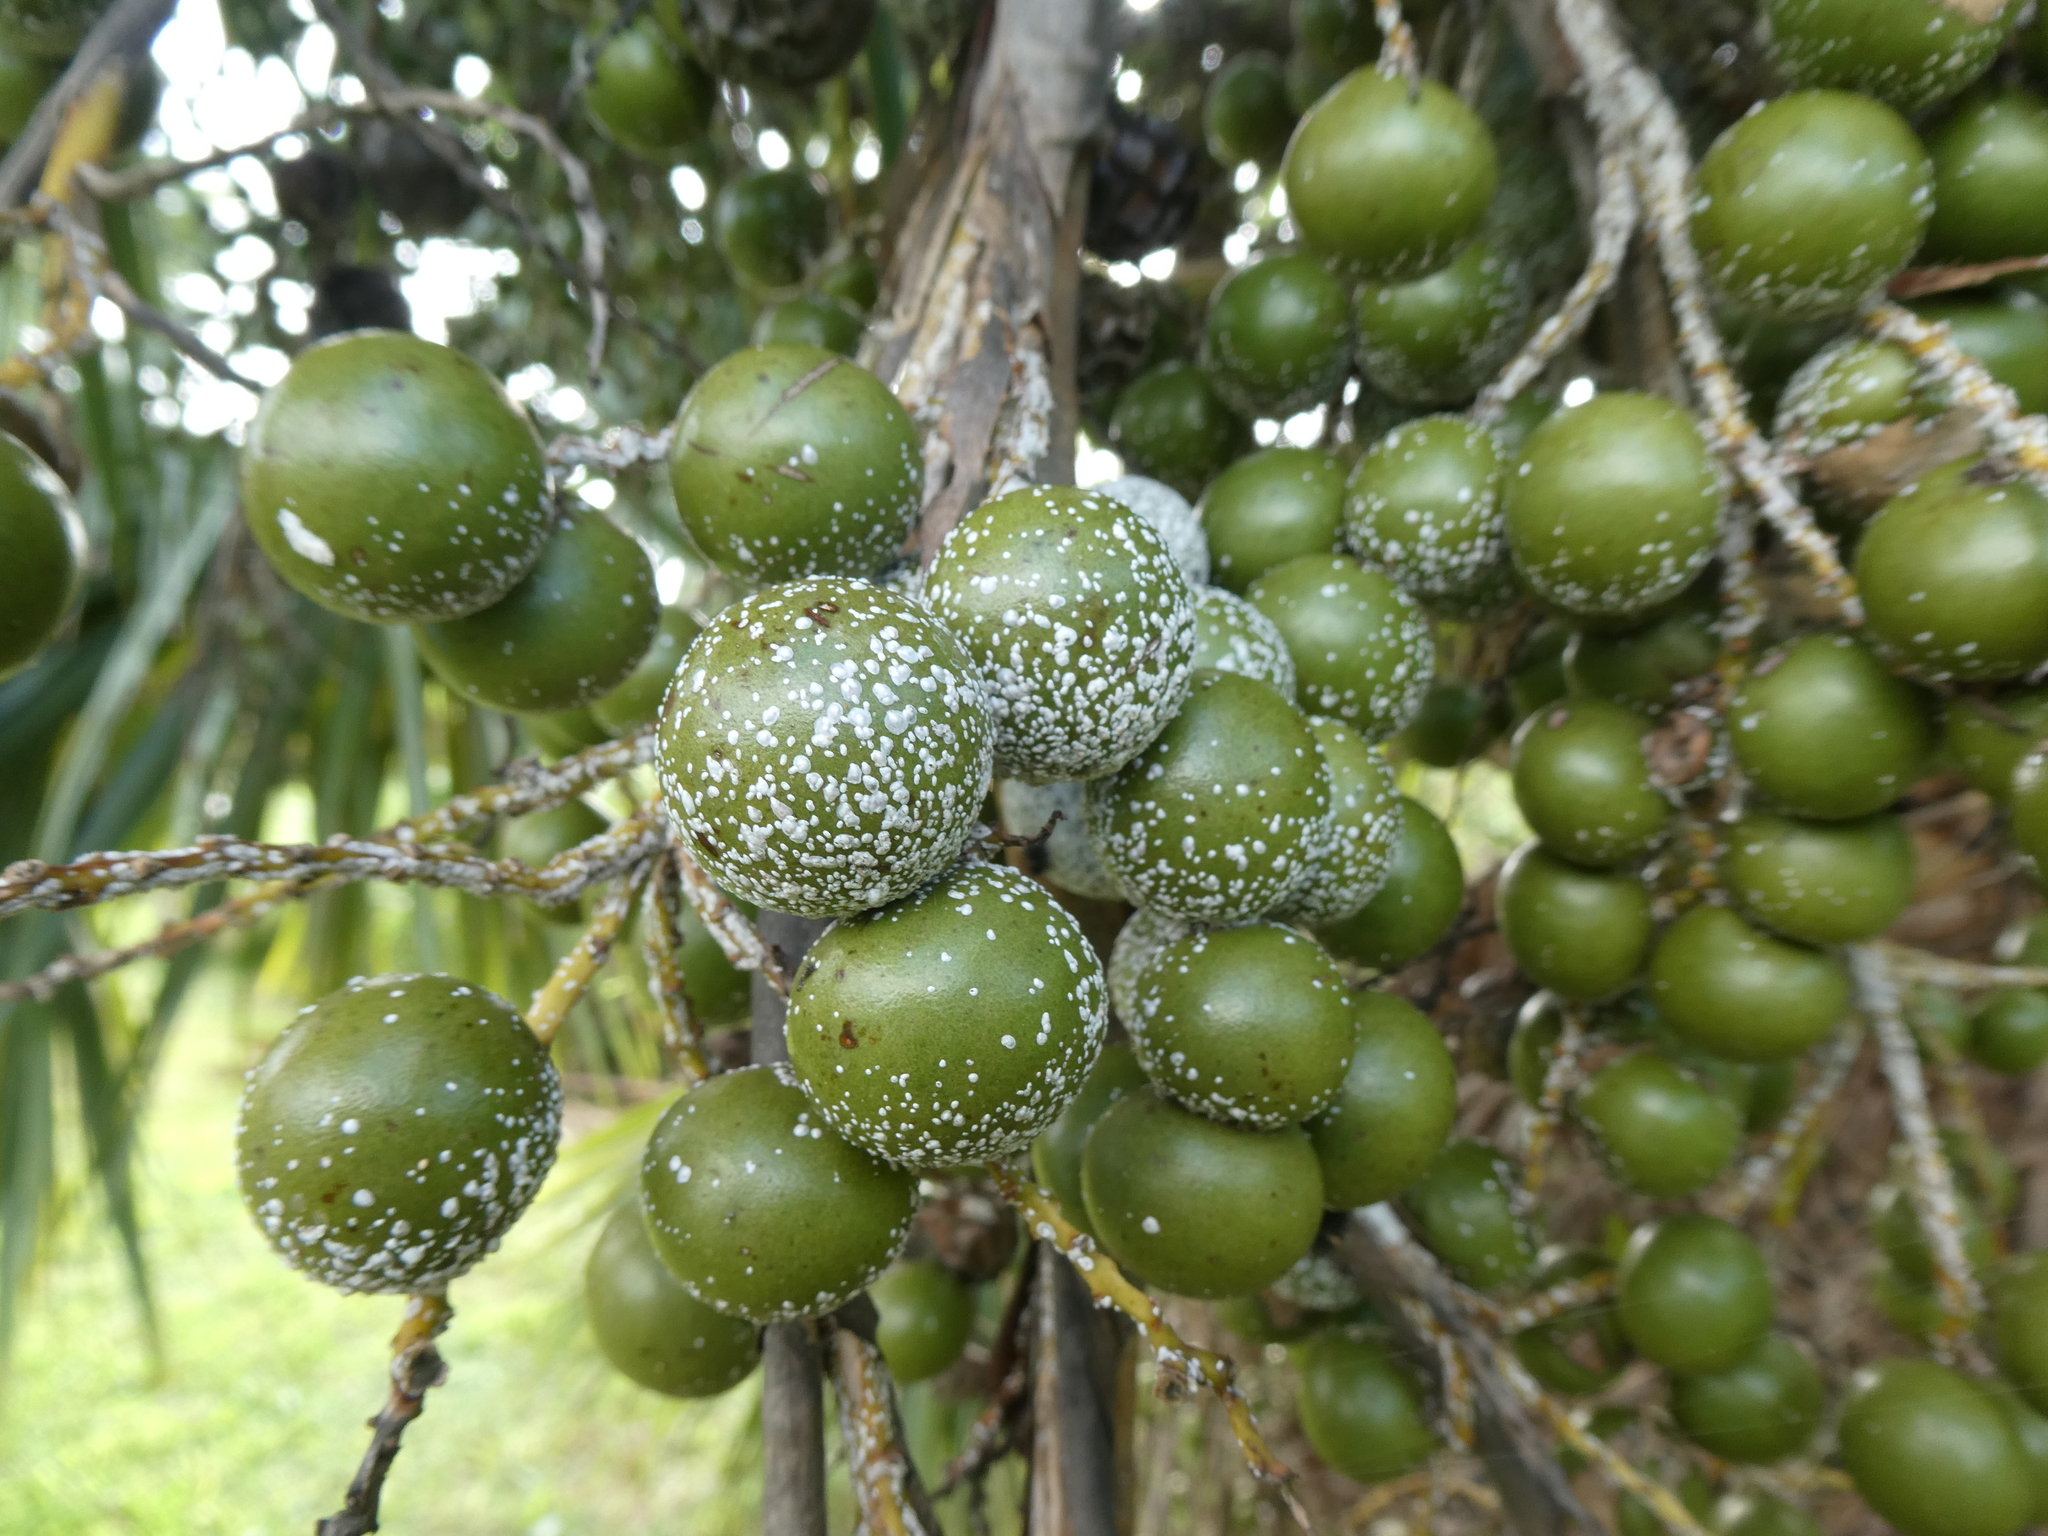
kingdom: Animalia
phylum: Arthropoda
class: Insecta
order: Hemiptera
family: Diaspididae
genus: Comstockiella
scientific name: Comstockiella sabalis
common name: Palmetto scale
